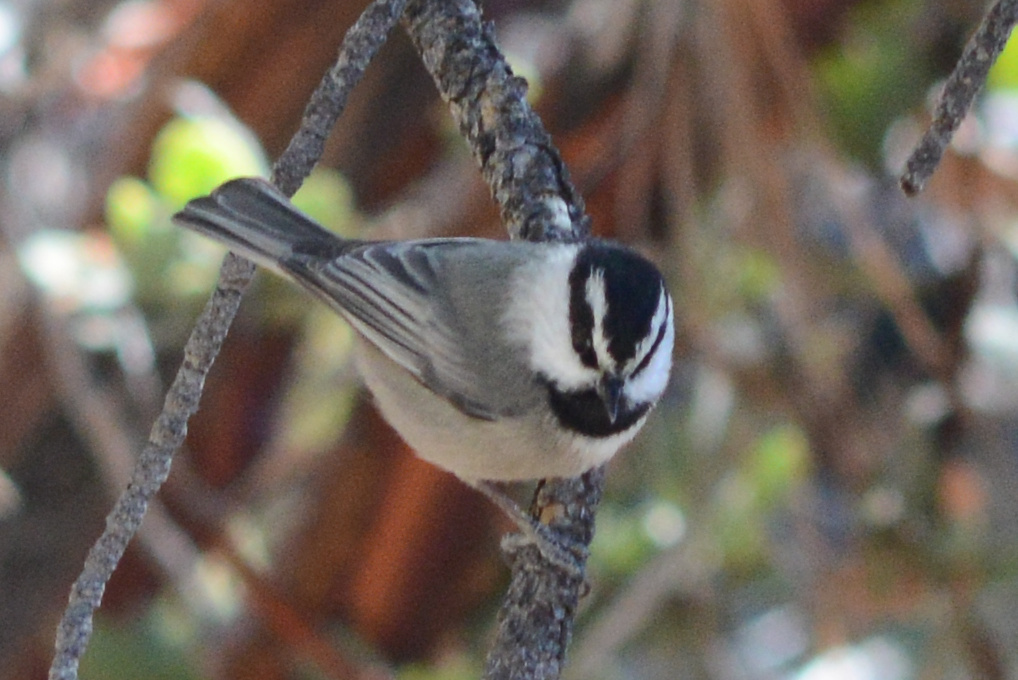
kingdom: Animalia
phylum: Chordata
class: Aves
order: Passeriformes
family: Paridae
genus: Poecile
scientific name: Poecile gambeli
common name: Mountain chickadee
